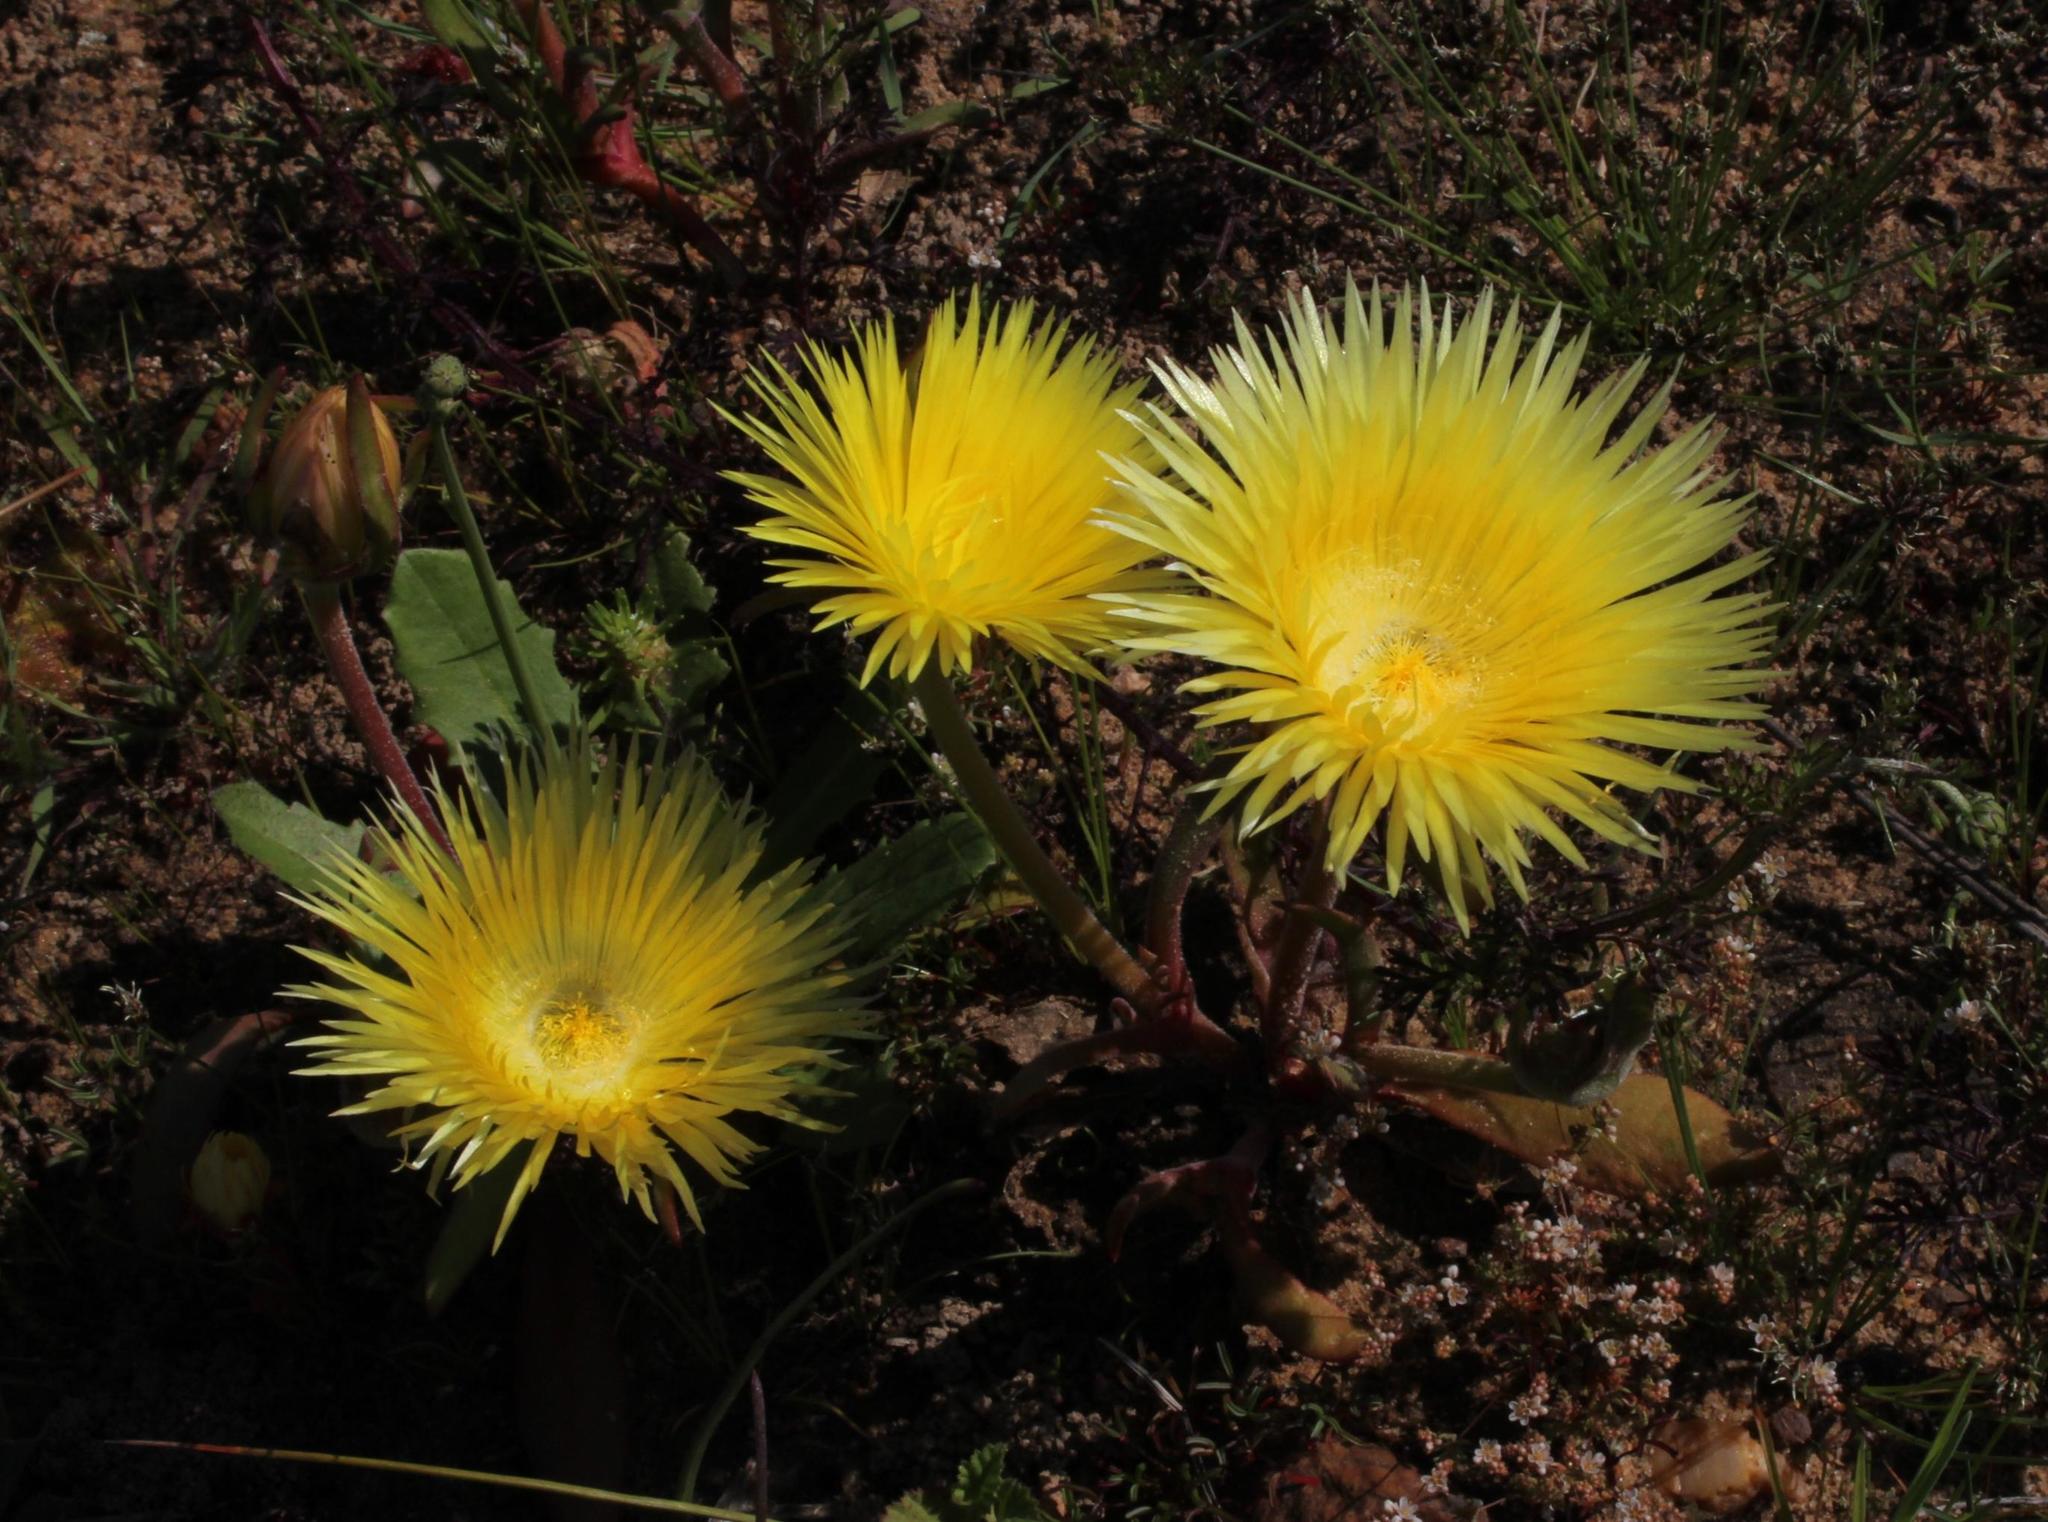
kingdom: Plantae
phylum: Tracheophyta
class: Magnoliopsida
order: Caryophyllales
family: Aizoaceae
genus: Carpanthea
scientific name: Carpanthea pomeridiana
